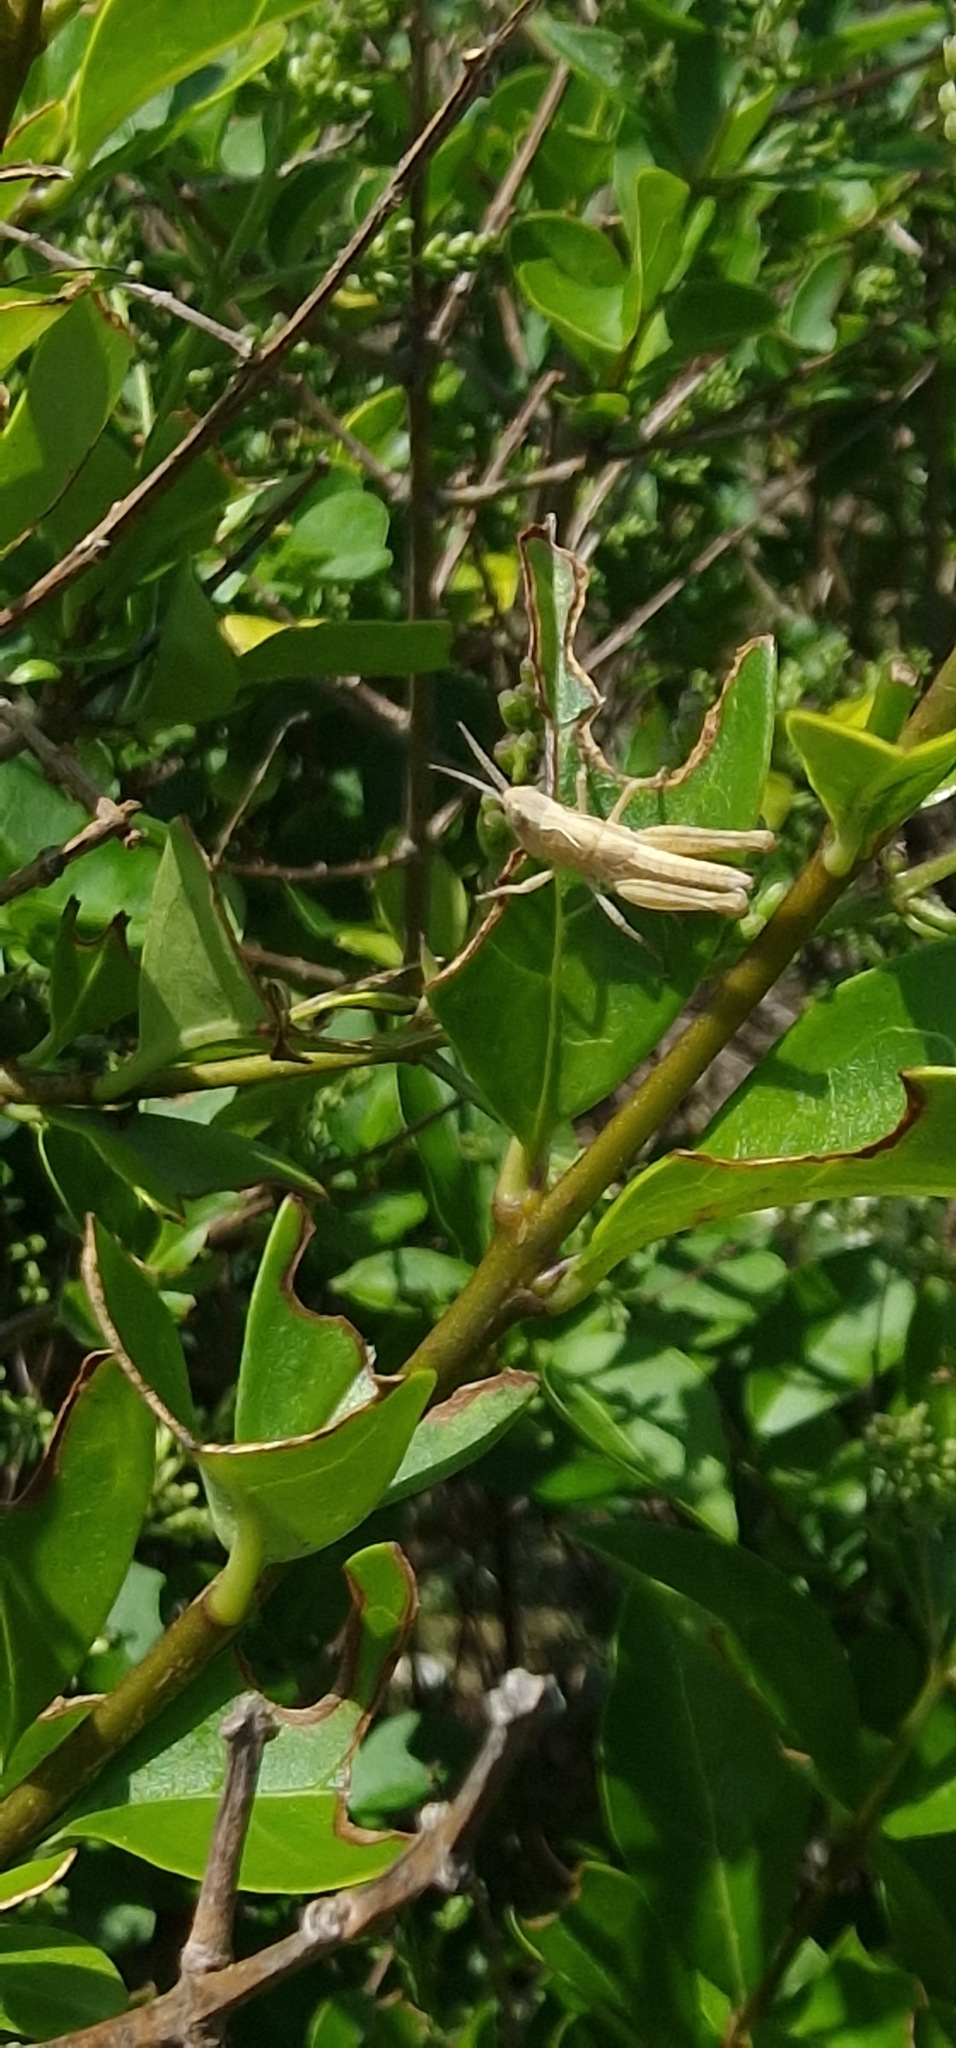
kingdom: Animalia
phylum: Arthropoda
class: Insecta
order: Orthoptera
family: Acrididae
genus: Chorthippus
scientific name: Chorthippus brunneus
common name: Field grasshopper
